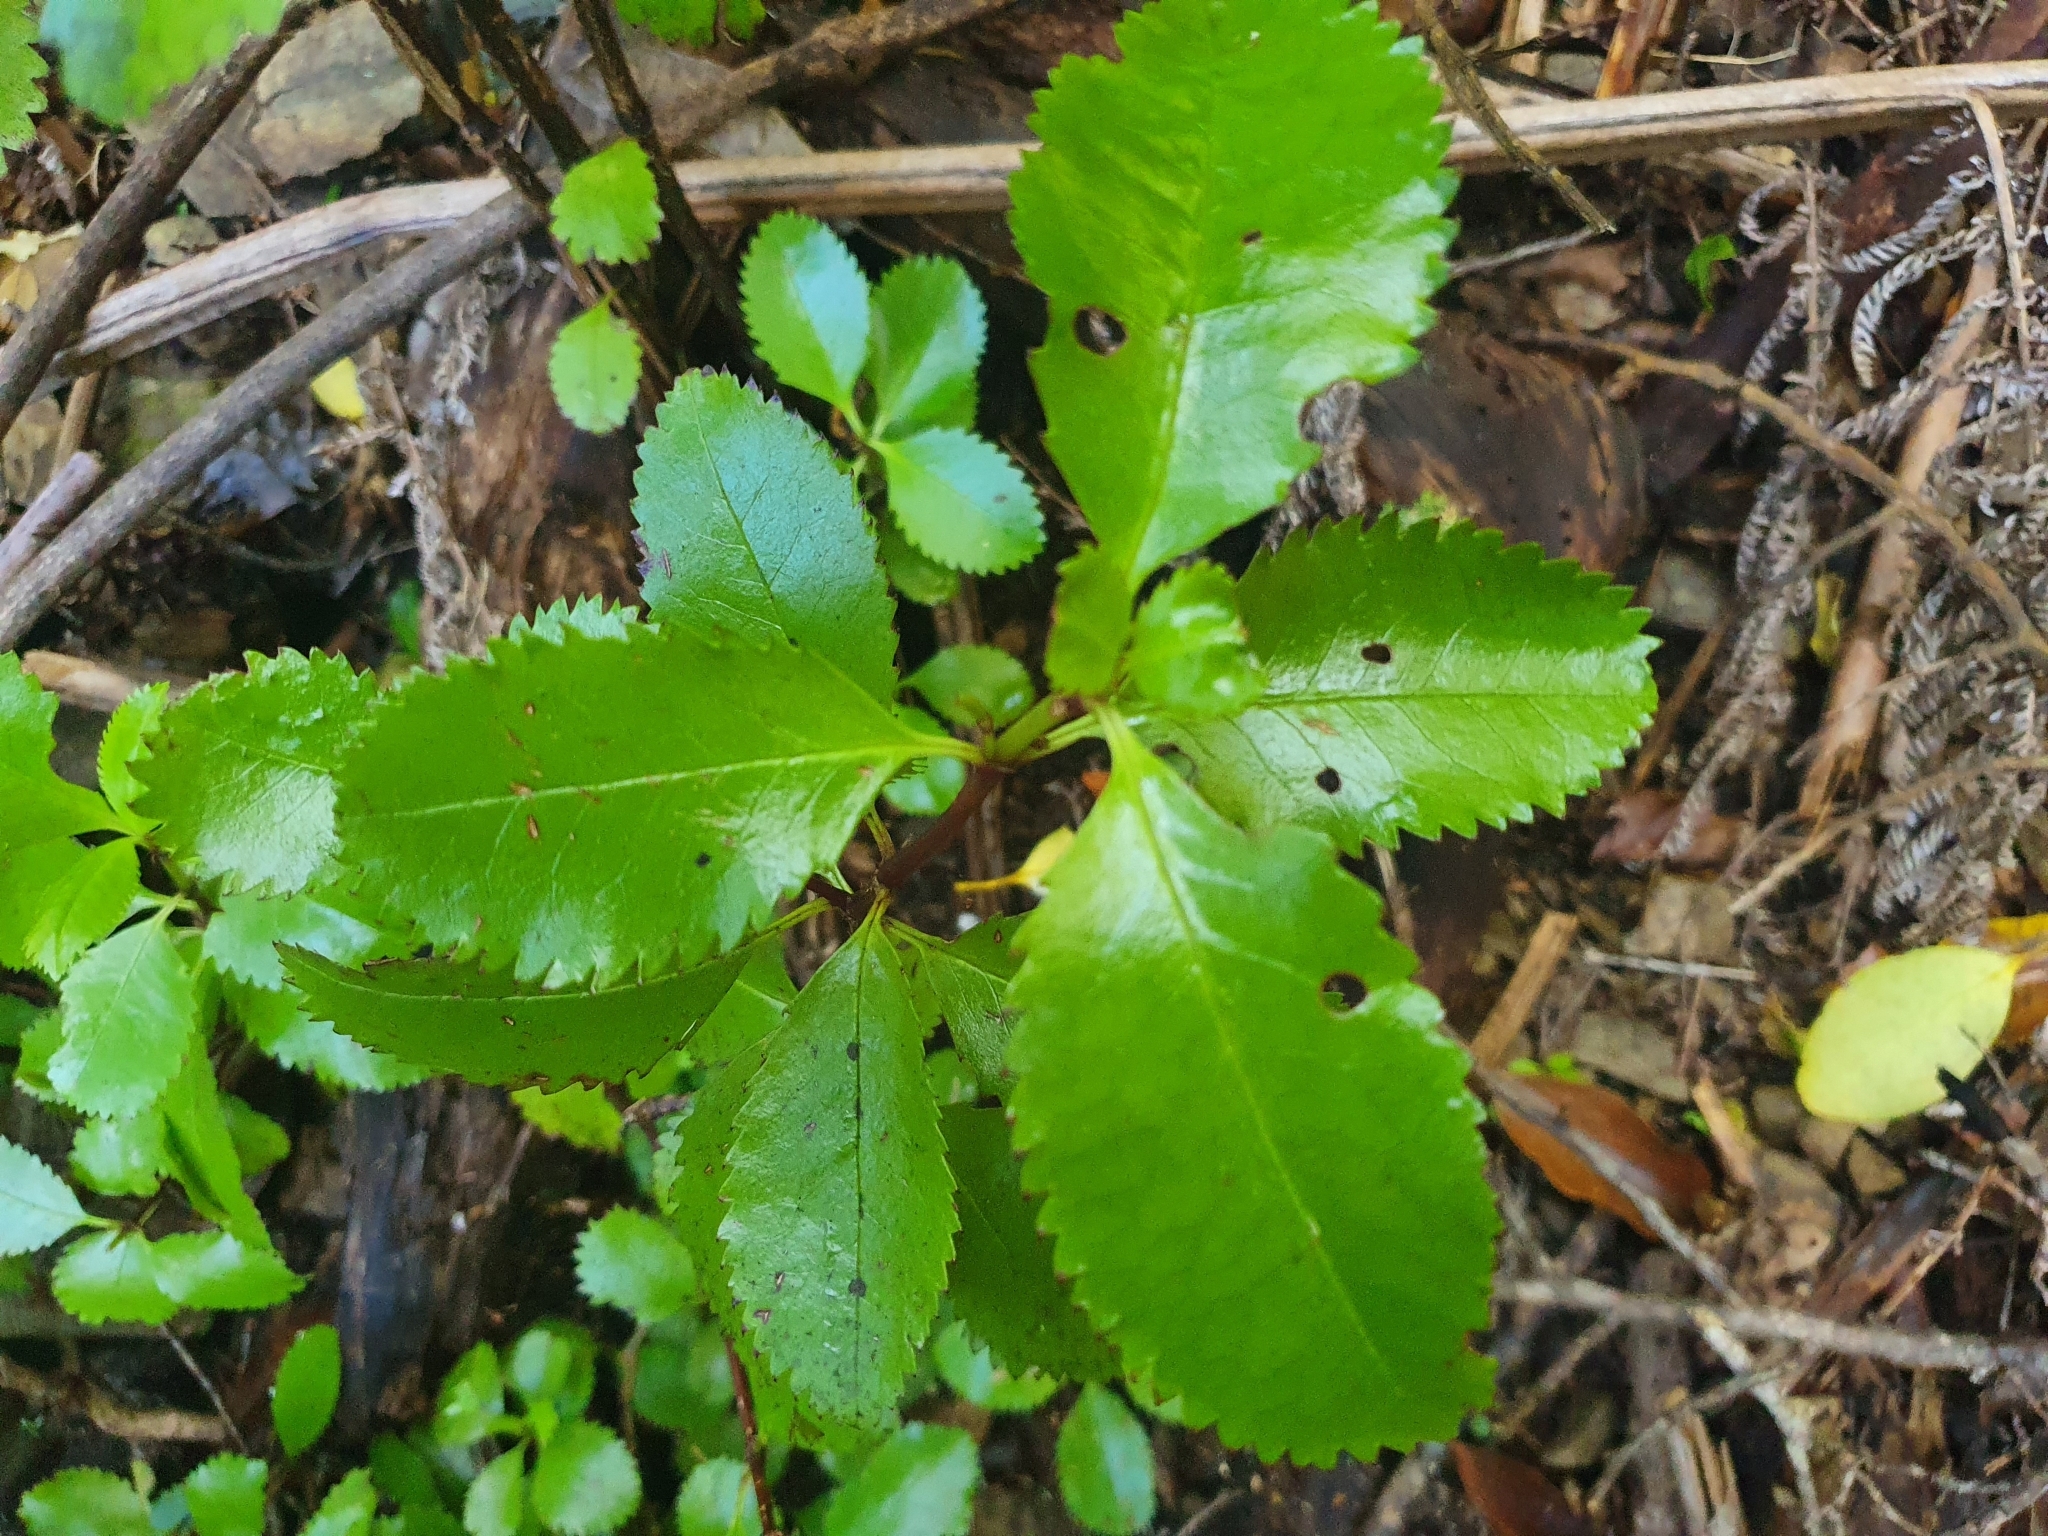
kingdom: Plantae
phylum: Tracheophyta
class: Magnoliopsida
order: Chloranthales
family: Chloranthaceae
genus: Ascarina
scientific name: Ascarina lucida
